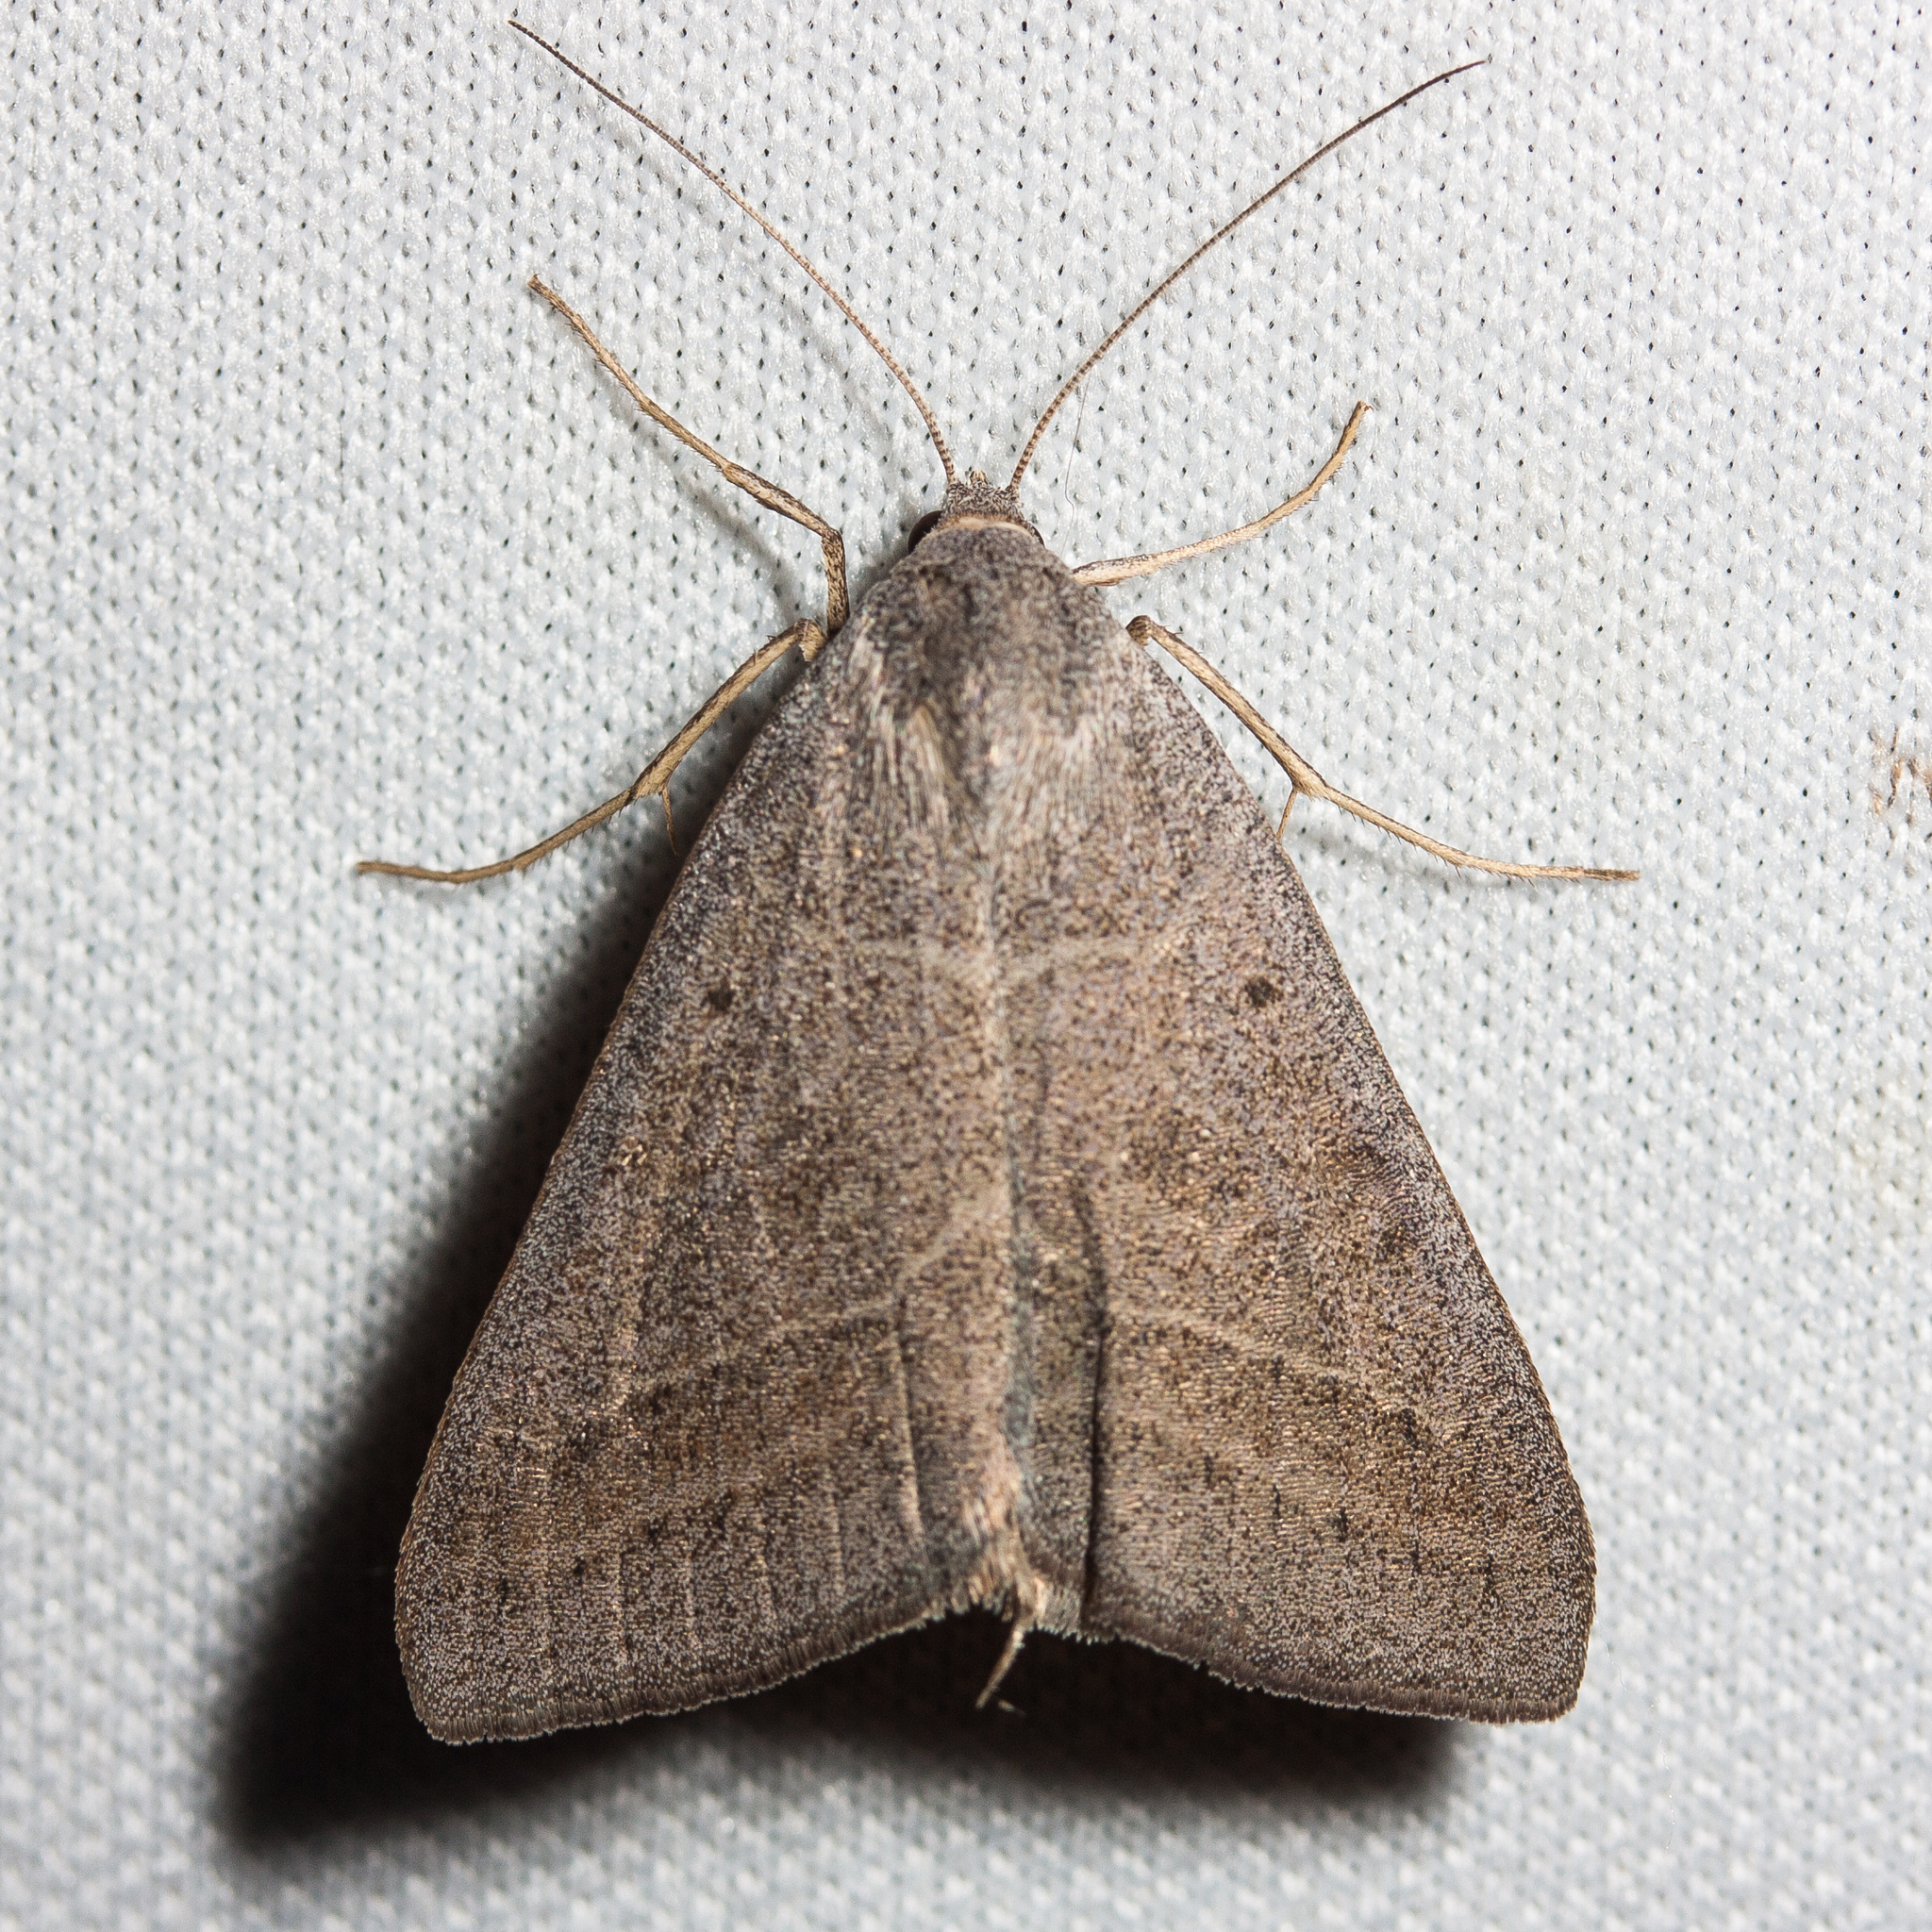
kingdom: Animalia
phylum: Arthropoda
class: Insecta
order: Lepidoptera
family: Erebidae
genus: Caenurgia
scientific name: Caenurgia togataria
